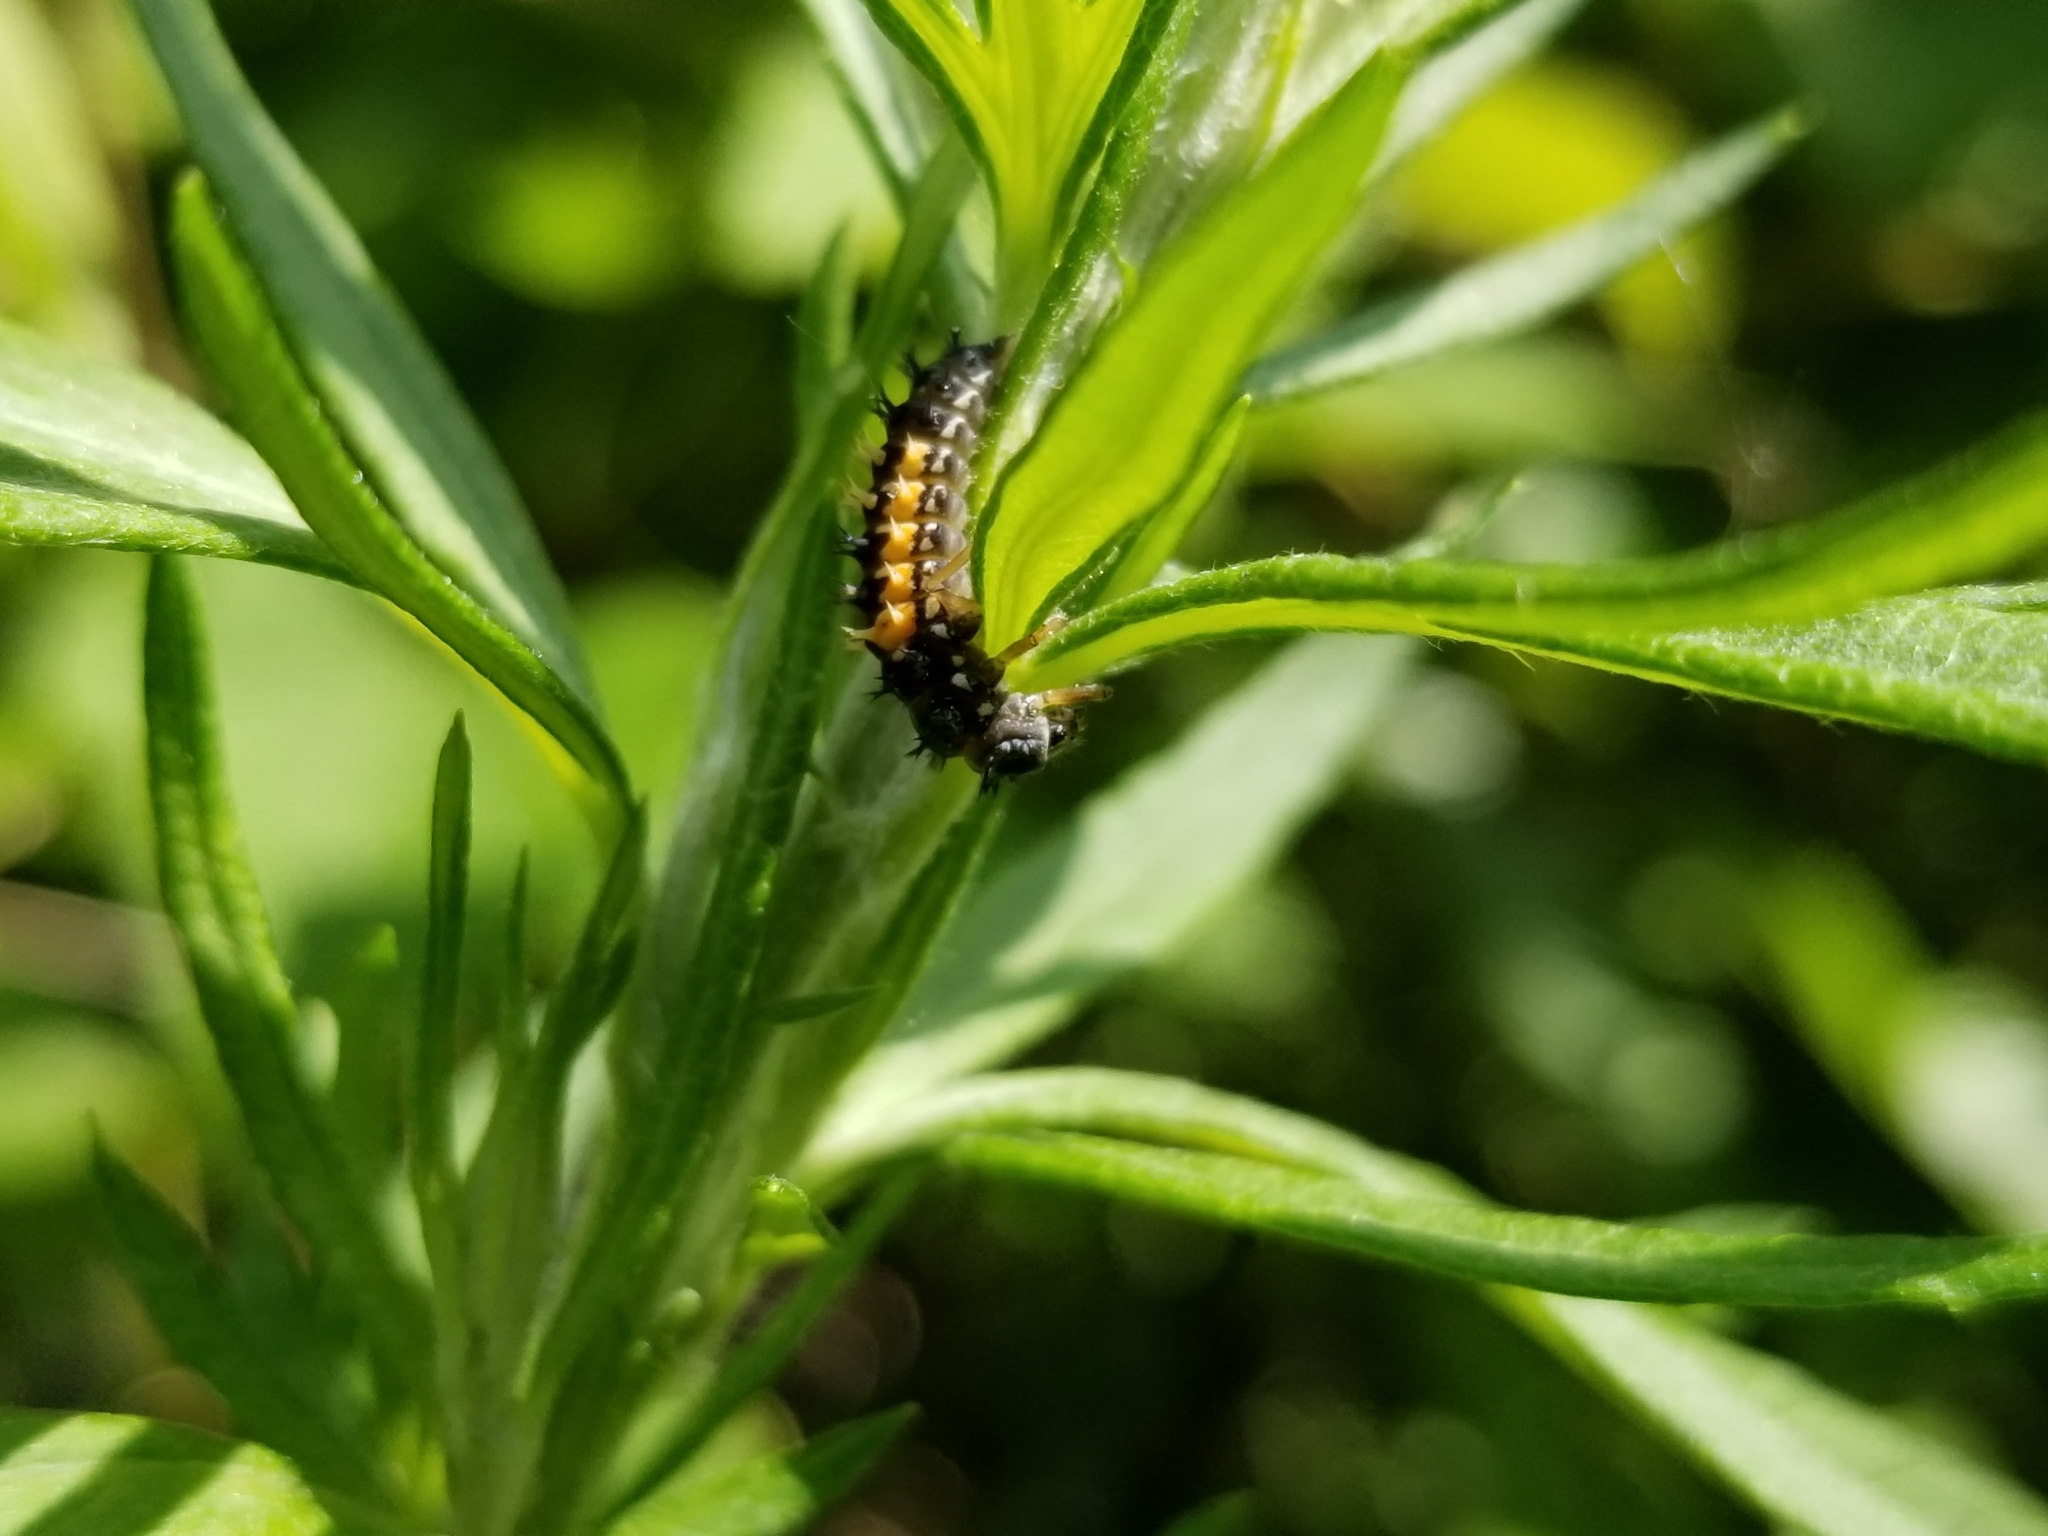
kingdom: Animalia
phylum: Arthropoda
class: Insecta
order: Coleoptera
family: Coccinellidae
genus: Harmonia
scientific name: Harmonia axyridis
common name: Harlequin ladybird
